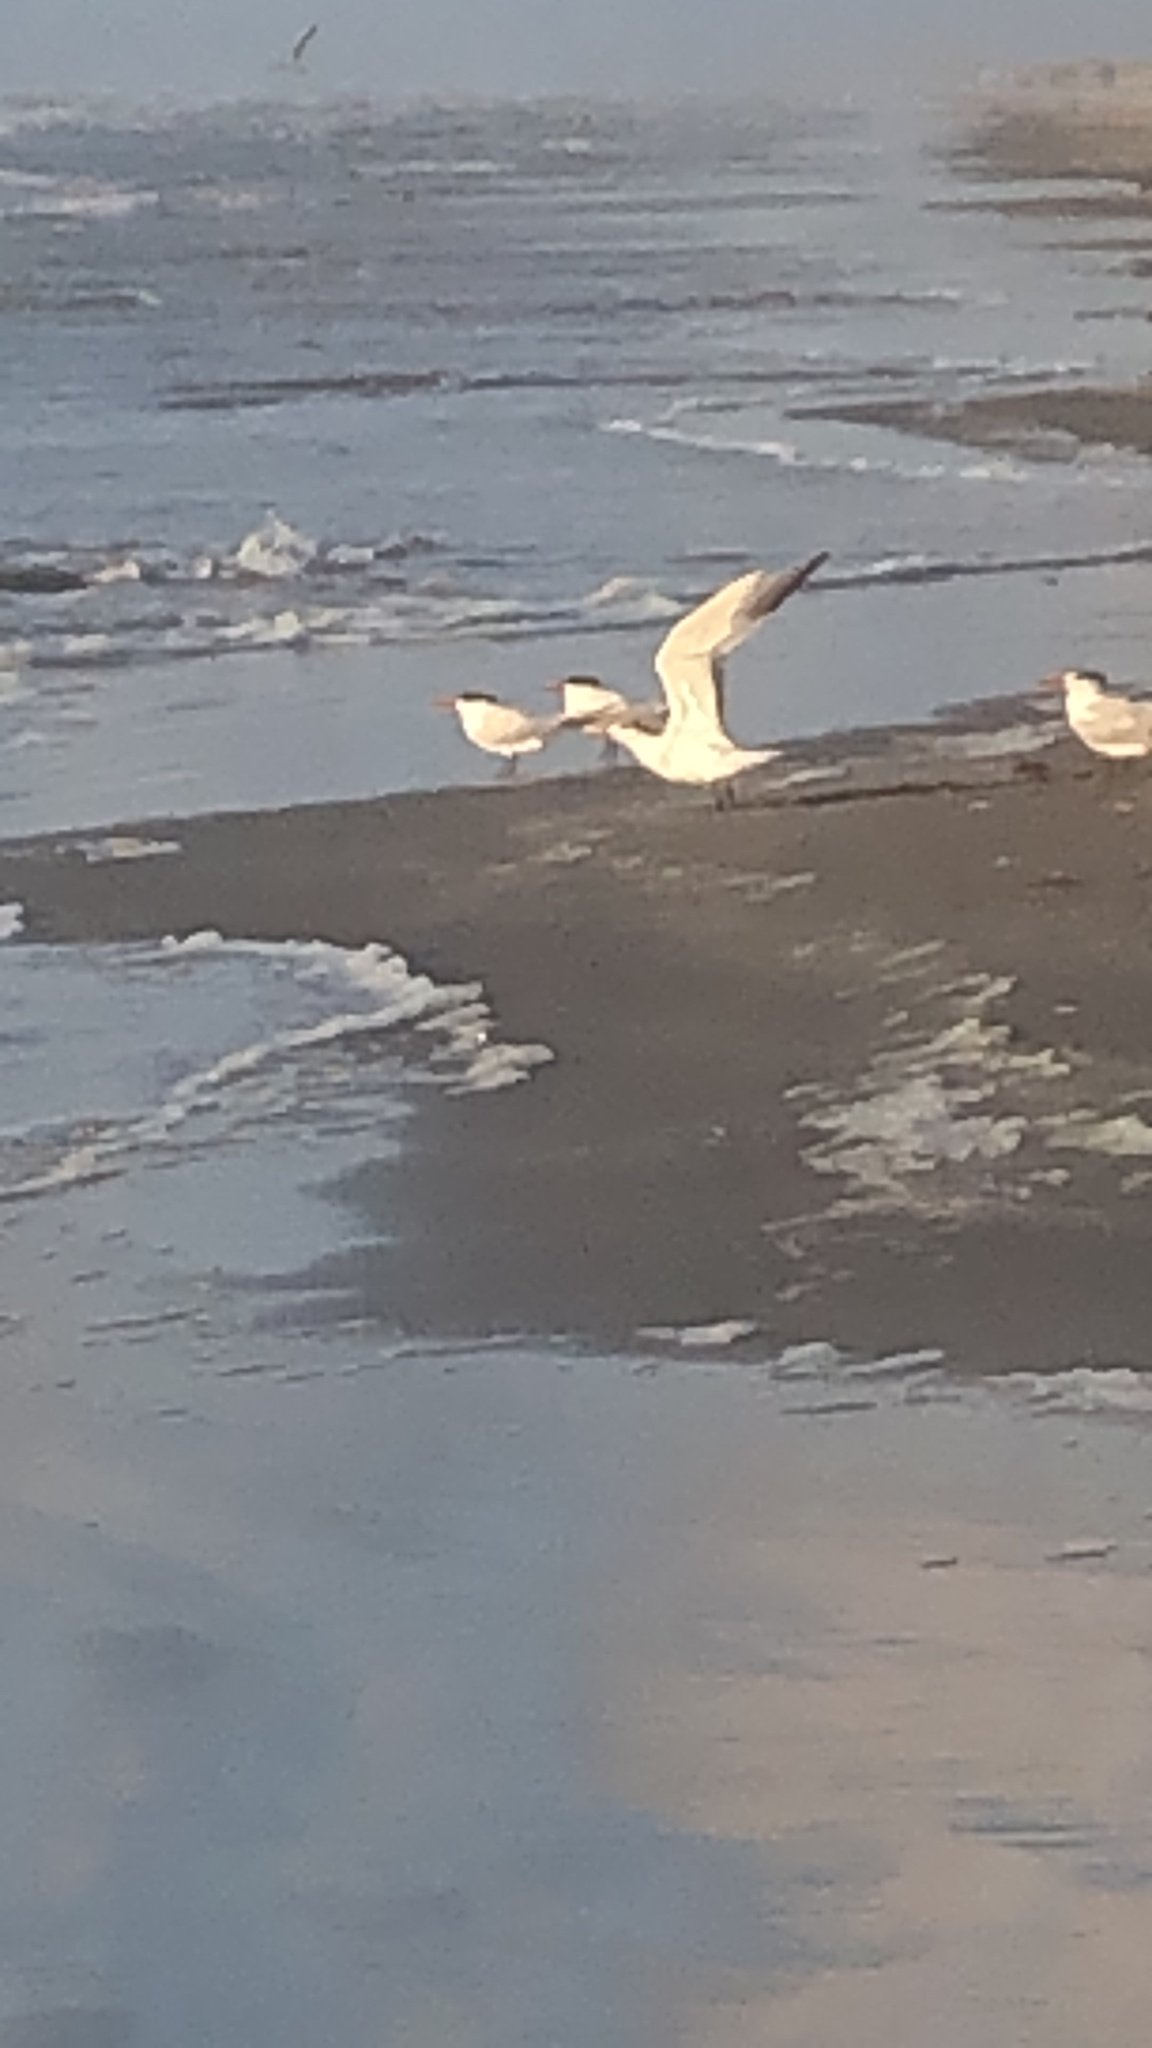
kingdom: Animalia
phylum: Chordata
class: Aves
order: Charadriiformes
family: Laridae
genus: Thalasseus
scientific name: Thalasseus maximus
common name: Royal tern
